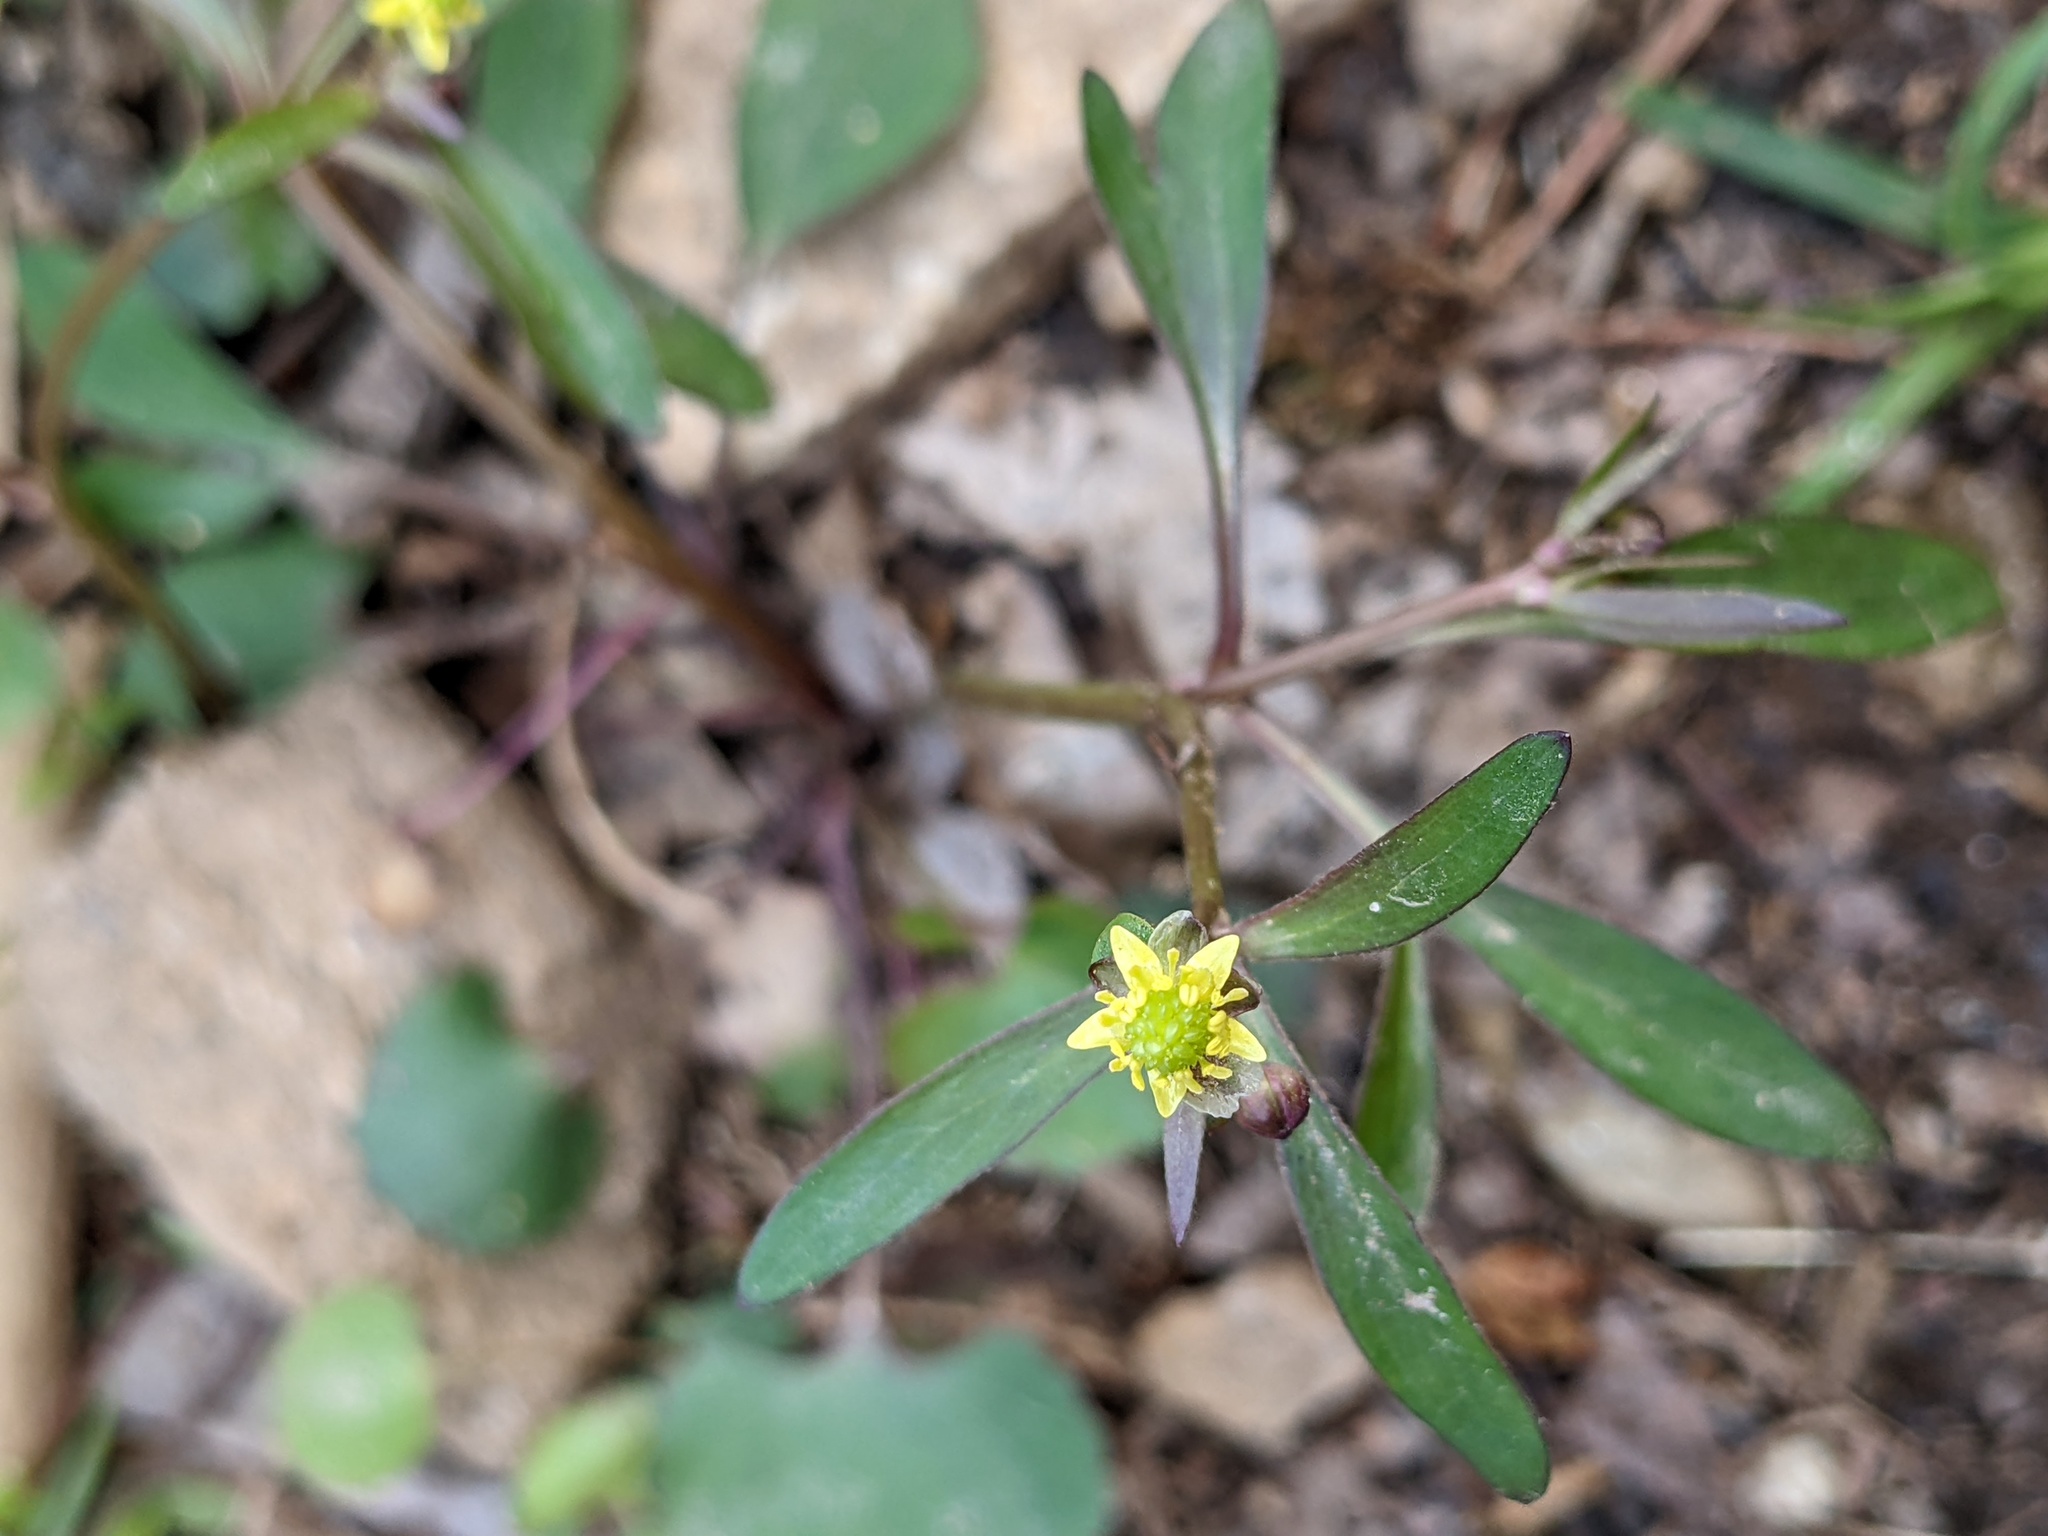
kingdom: Plantae
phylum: Tracheophyta
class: Magnoliopsida
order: Ranunculales
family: Ranunculaceae
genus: Ranunculus
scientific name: Ranunculus abortivus
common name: Early wood buttercup
